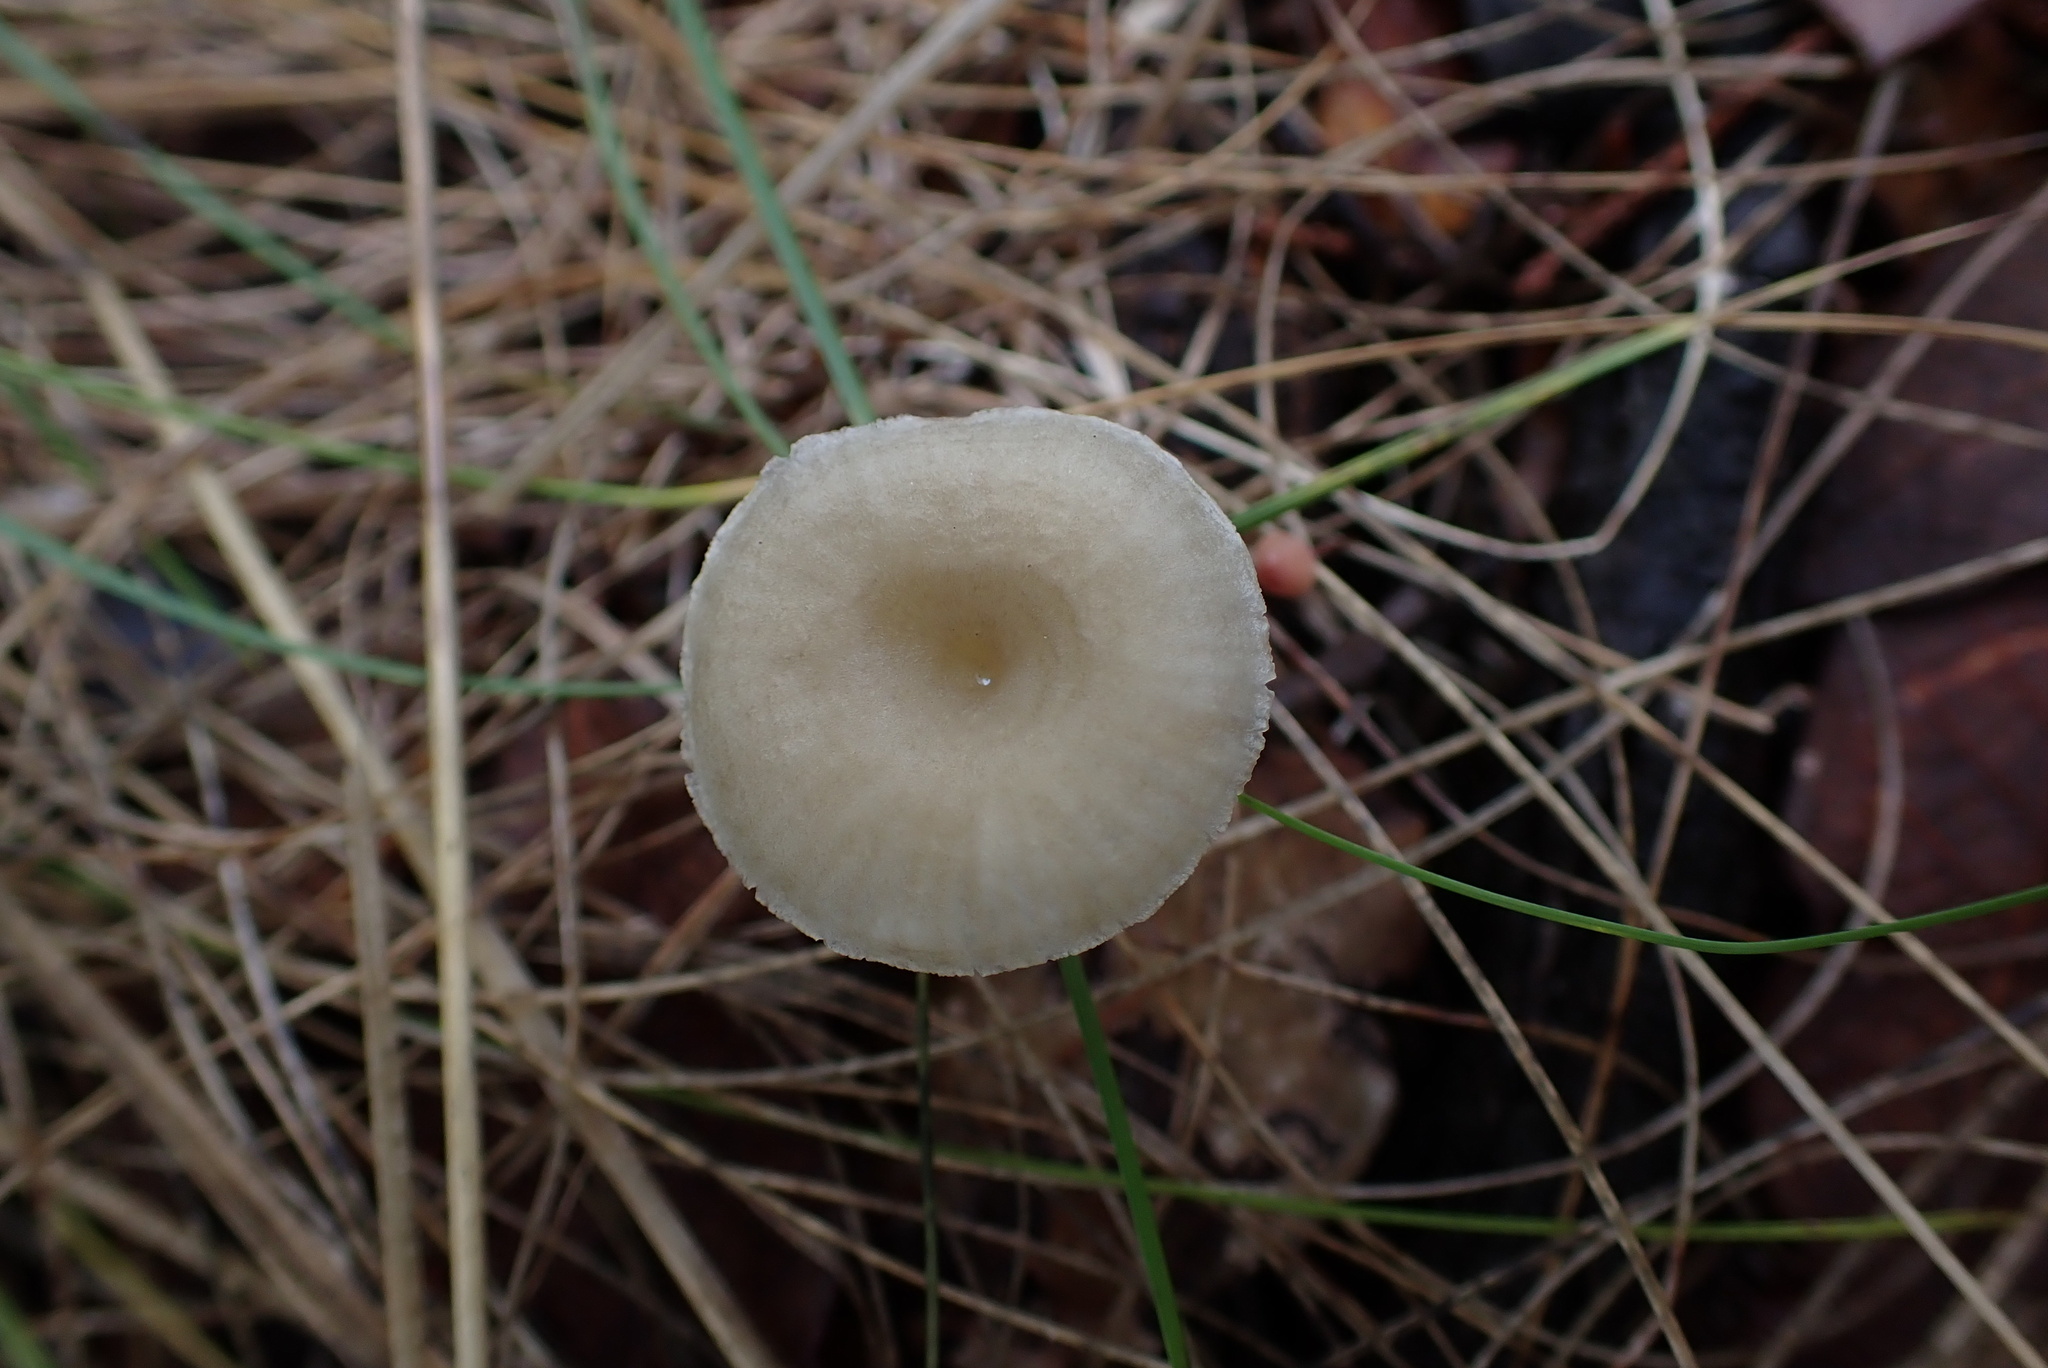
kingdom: Fungi
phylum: Basidiomycota
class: Agaricomycetes
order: Agaricales
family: Marasmiaceae
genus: Gerronema
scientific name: Gerronema subclavatum
